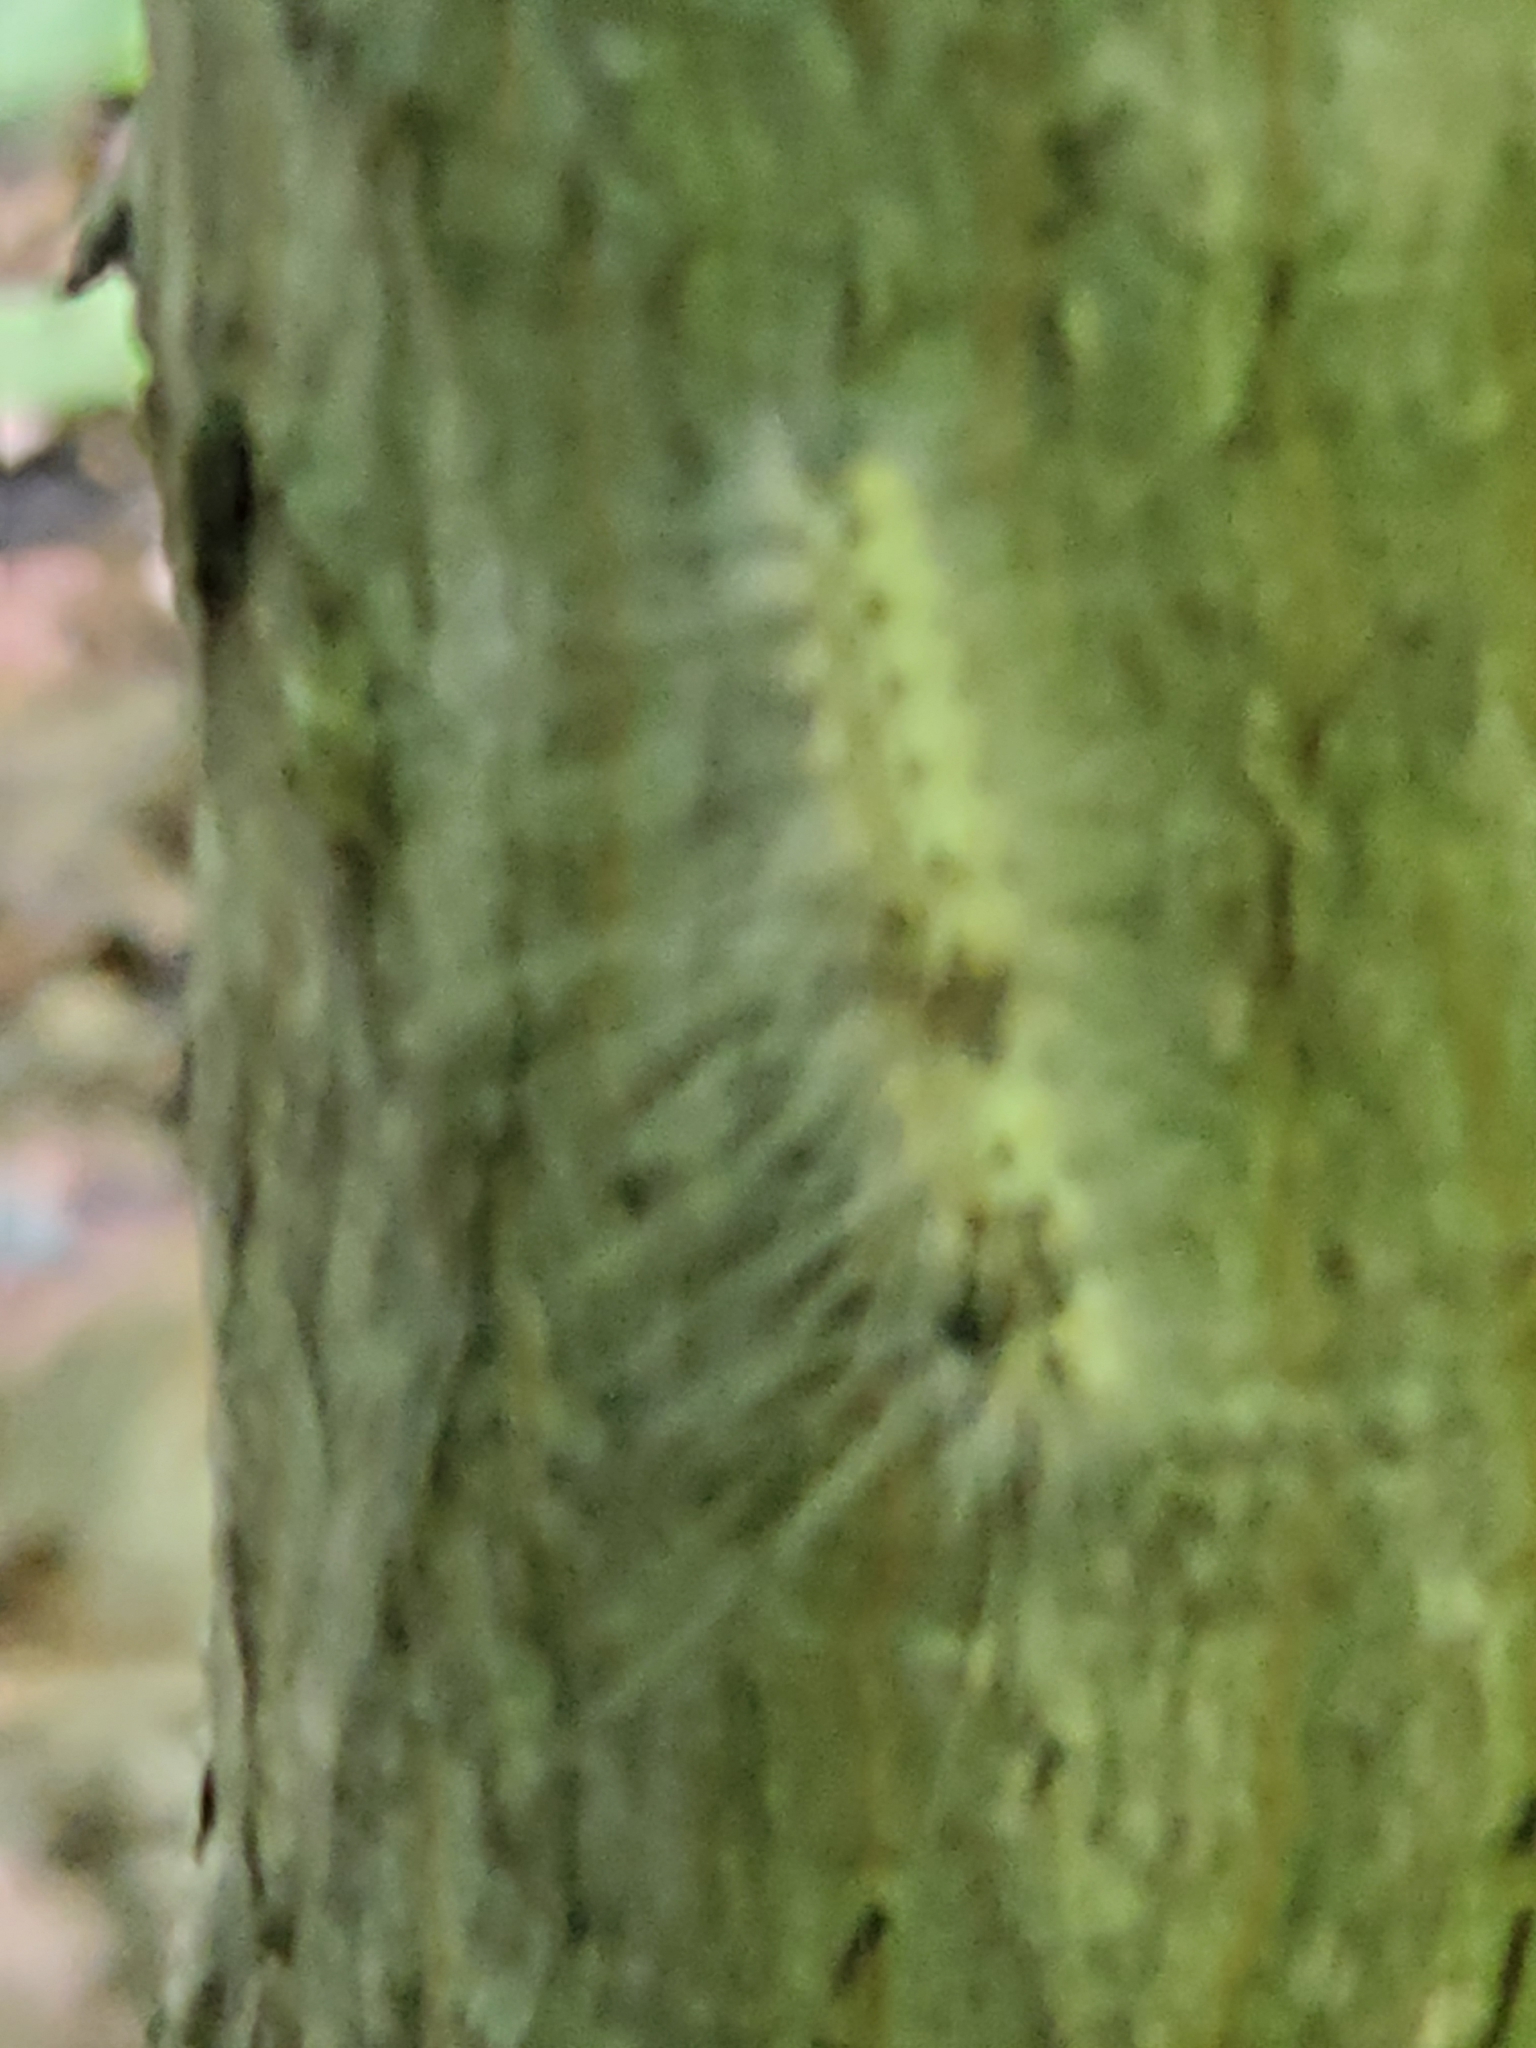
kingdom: Animalia
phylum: Arthropoda
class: Insecta
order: Lepidoptera
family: Erebidae
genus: Hyphantria
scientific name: Hyphantria cunea
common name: American white moth
